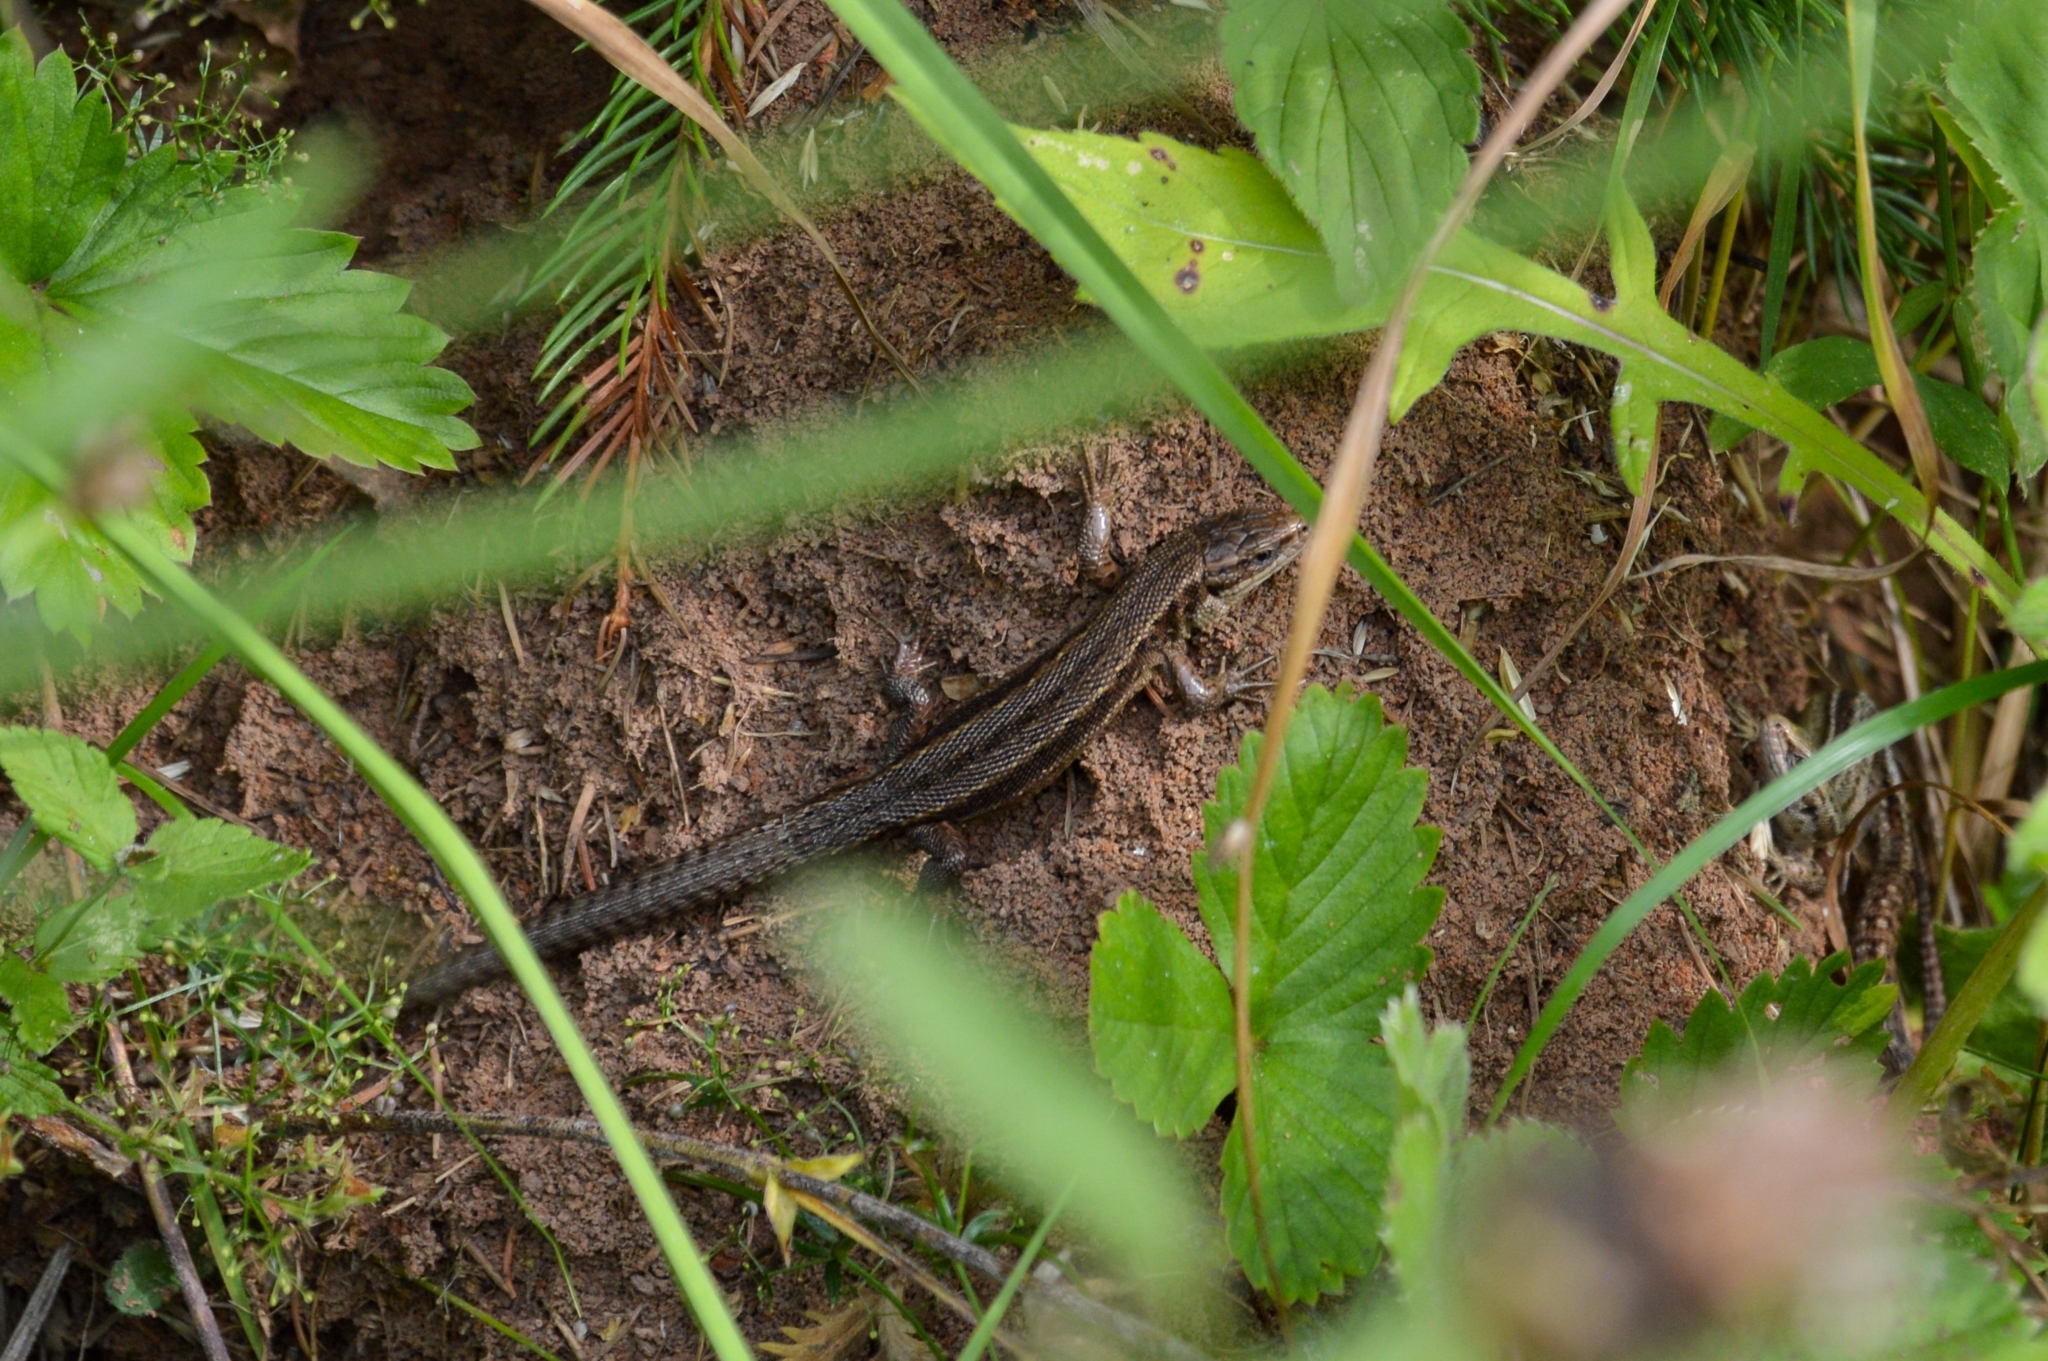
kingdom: Animalia
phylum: Chordata
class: Squamata
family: Lacertidae
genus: Zootoca
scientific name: Zootoca vivipara
